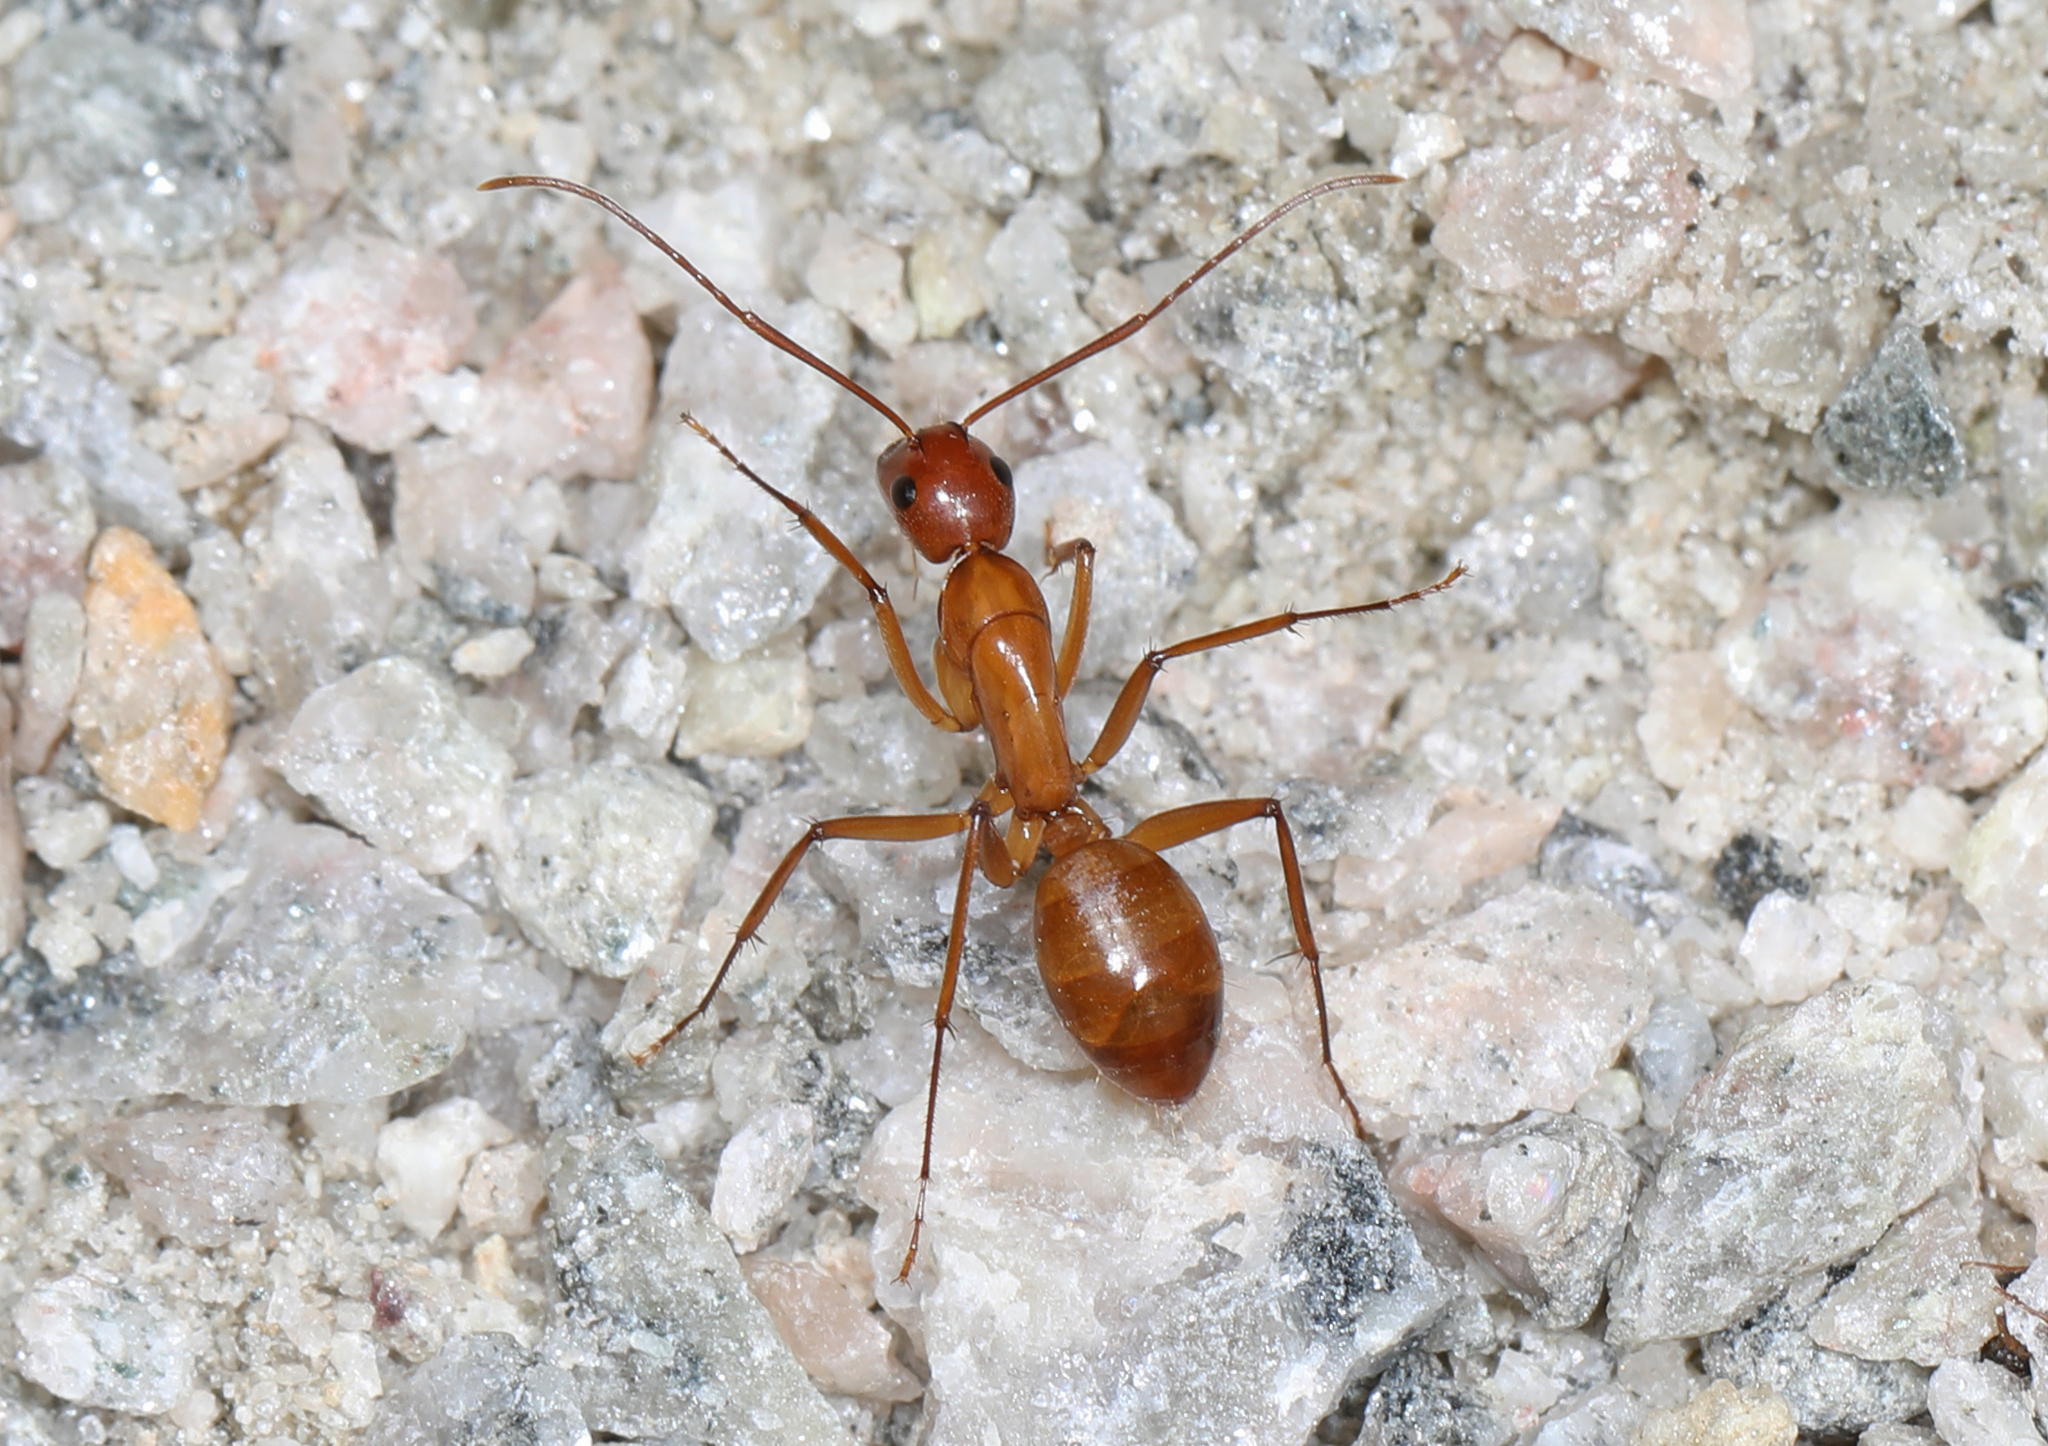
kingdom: Animalia
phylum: Arthropoda
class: Insecta
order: Hymenoptera
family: Formicidae
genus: Camponotus
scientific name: Camponotus castaneus
